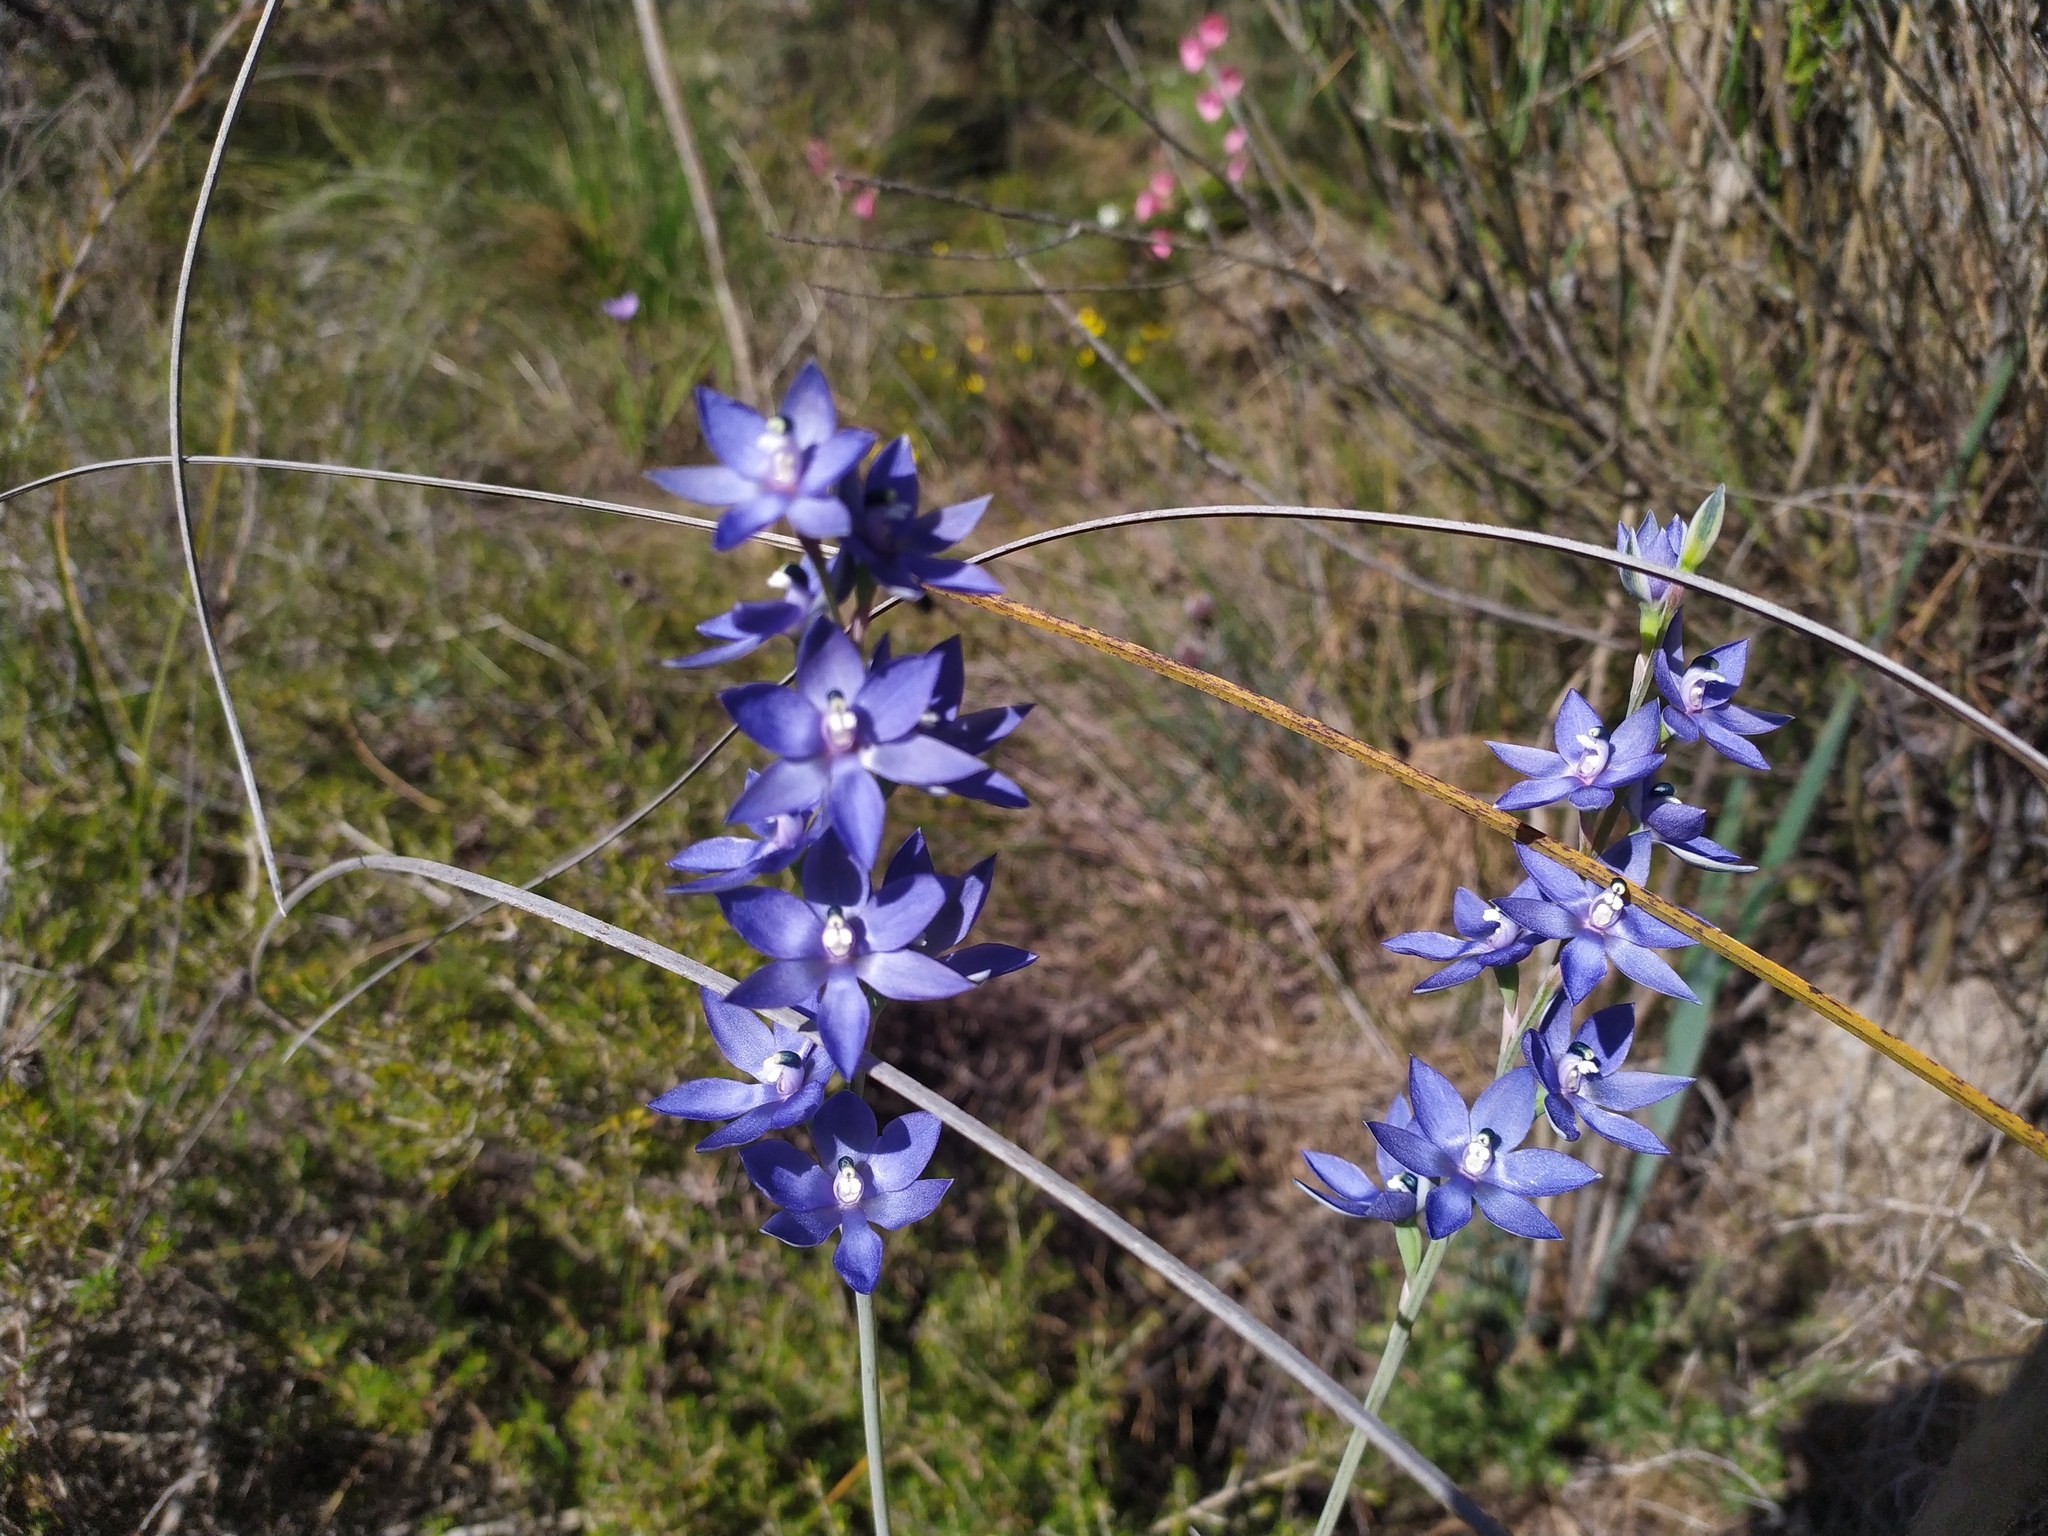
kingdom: Plantae
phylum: Tracheophyta
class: Liliopsida
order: Asparagales
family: Orchidaceae
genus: Thelymitra
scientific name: Thelymitra macrophylla
